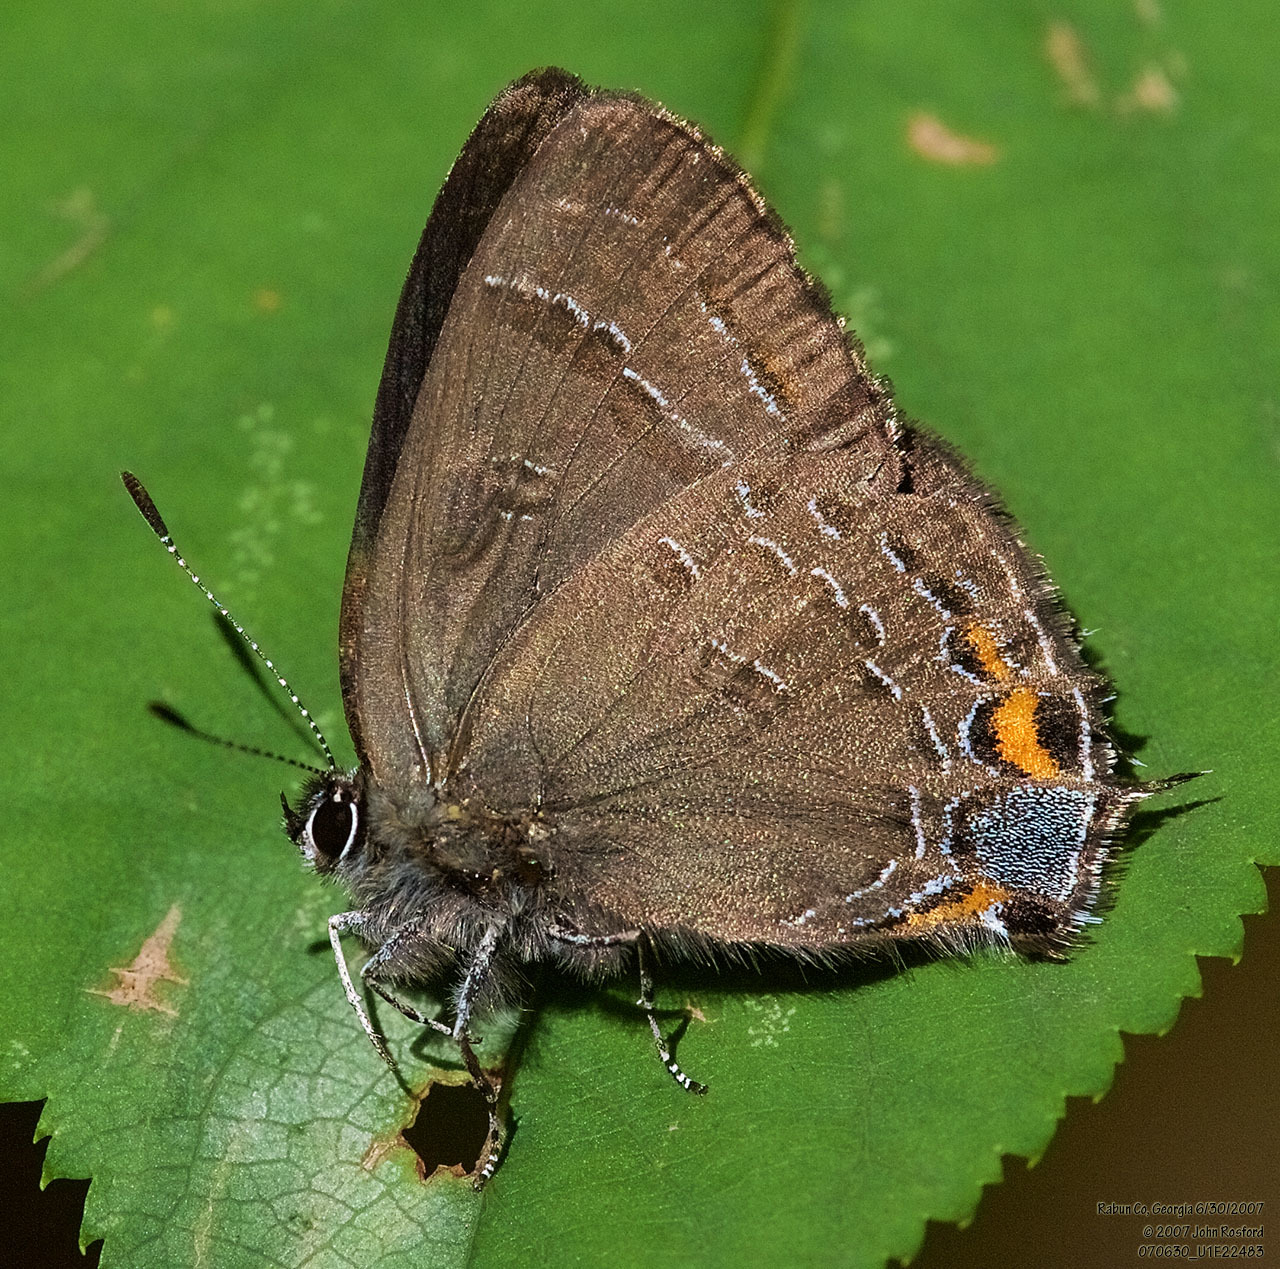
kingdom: Animalia
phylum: Arthropoda
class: Insecta
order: Lepidoptera
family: Lycaenidae
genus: Satyrium
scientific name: Satyrium calanus
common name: Banded hairstreak
